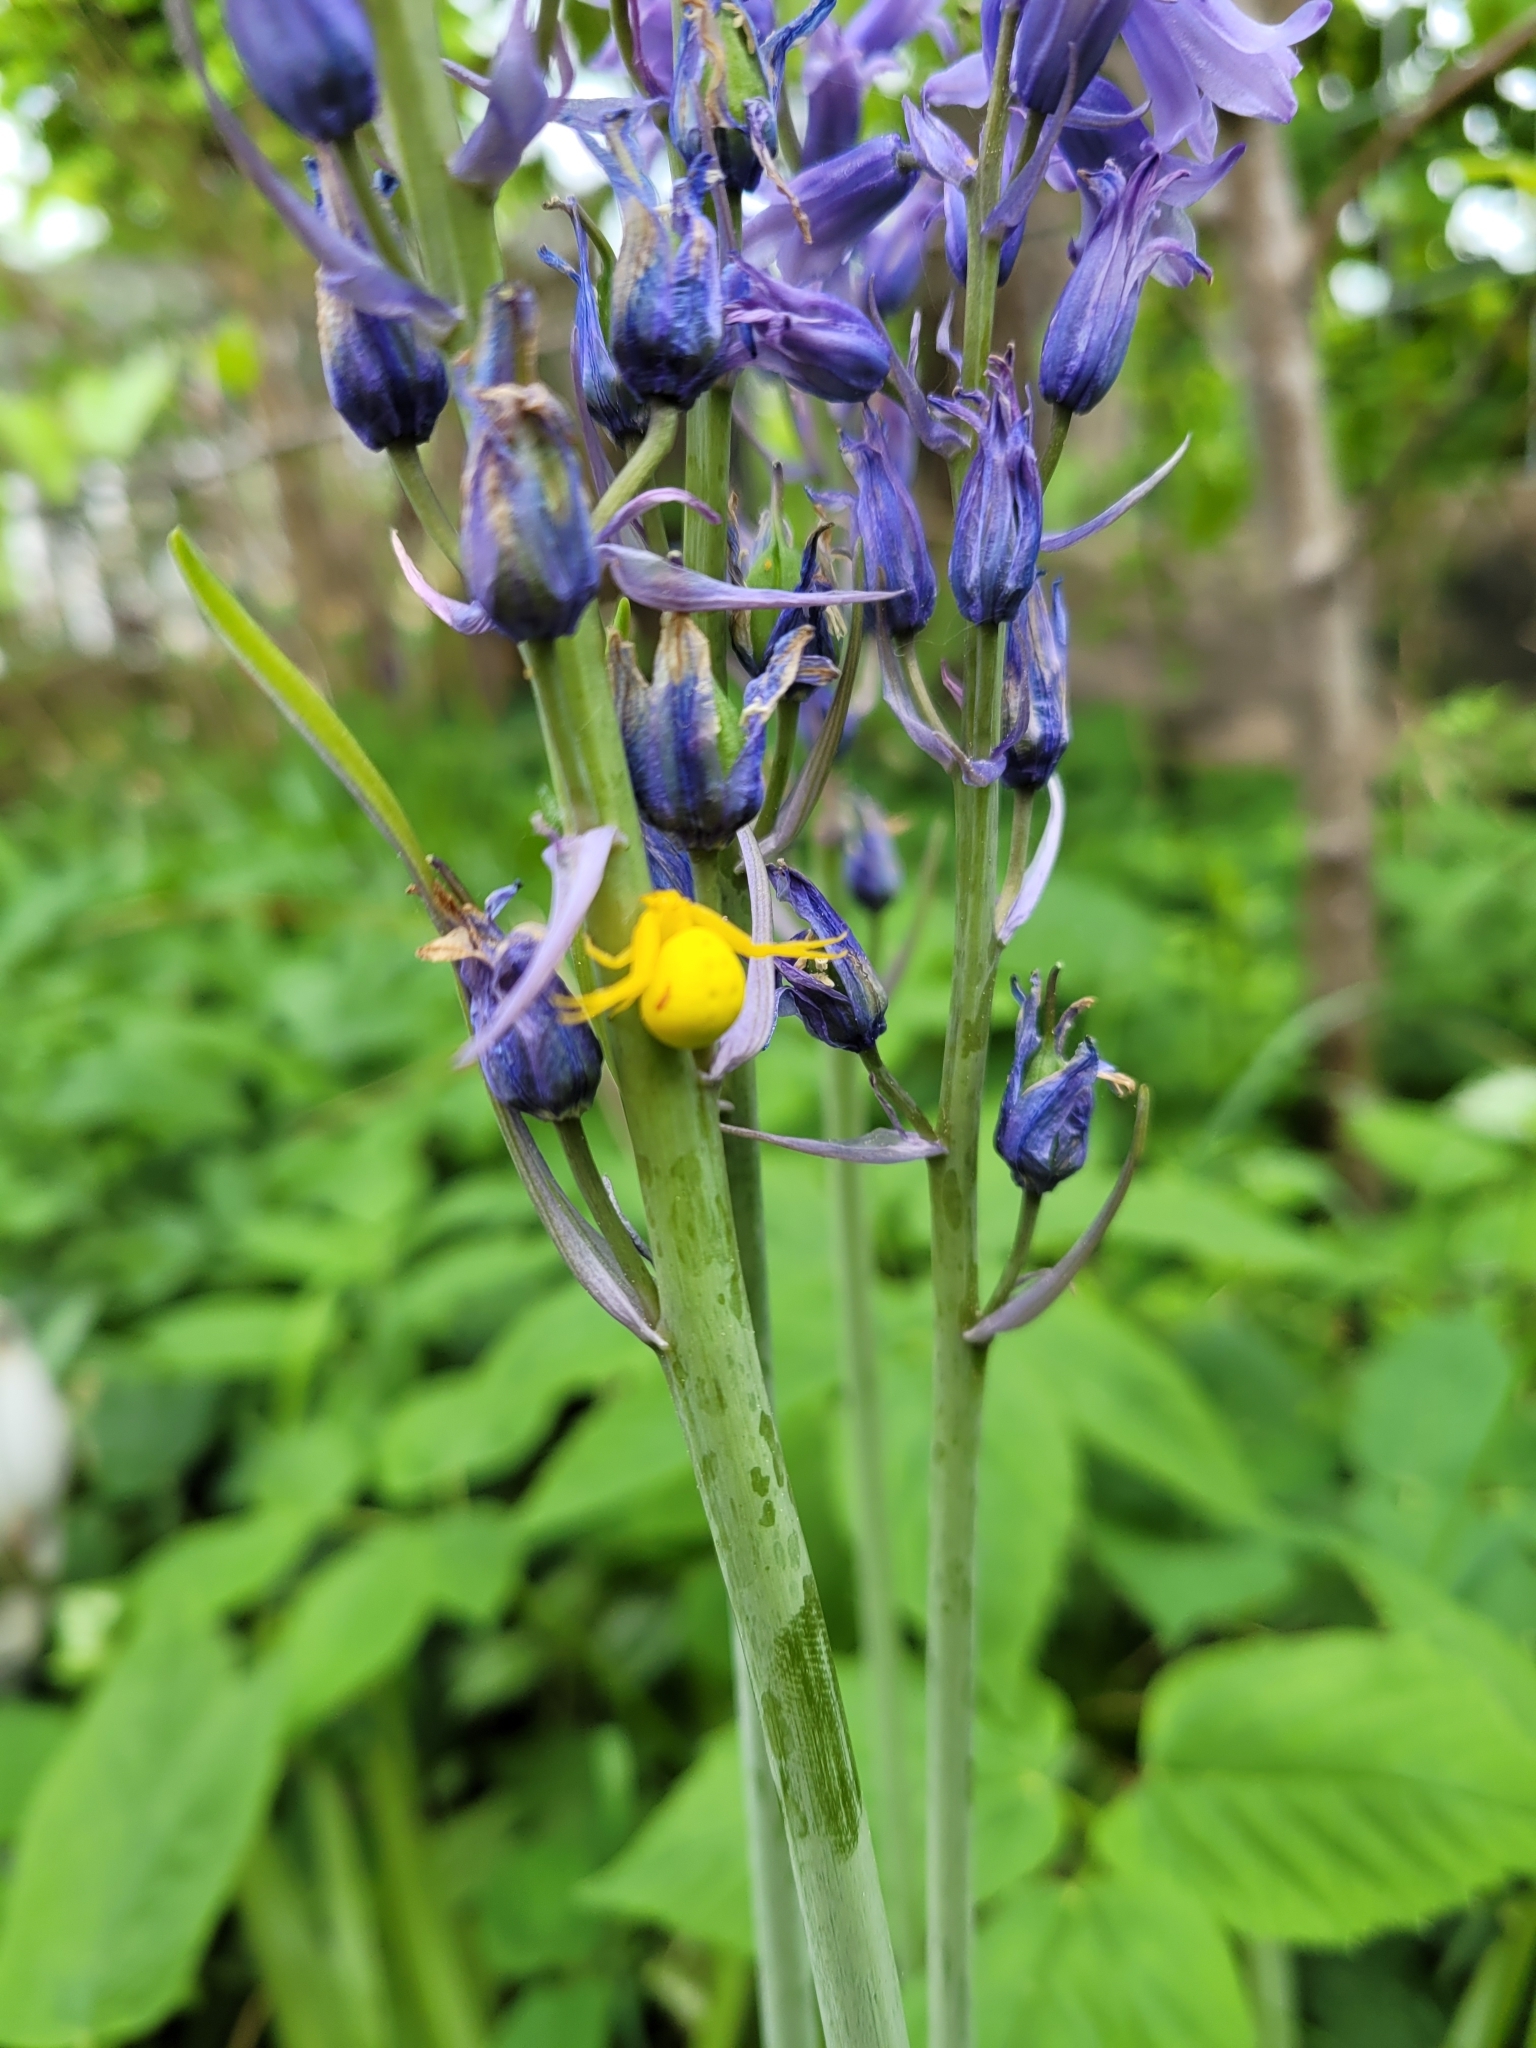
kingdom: Animalia
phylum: Arthropoda
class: Arachnida
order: Araneae
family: Thomisidae
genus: Misumena
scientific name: Misumena vatia
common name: Goldenrod crab spider
